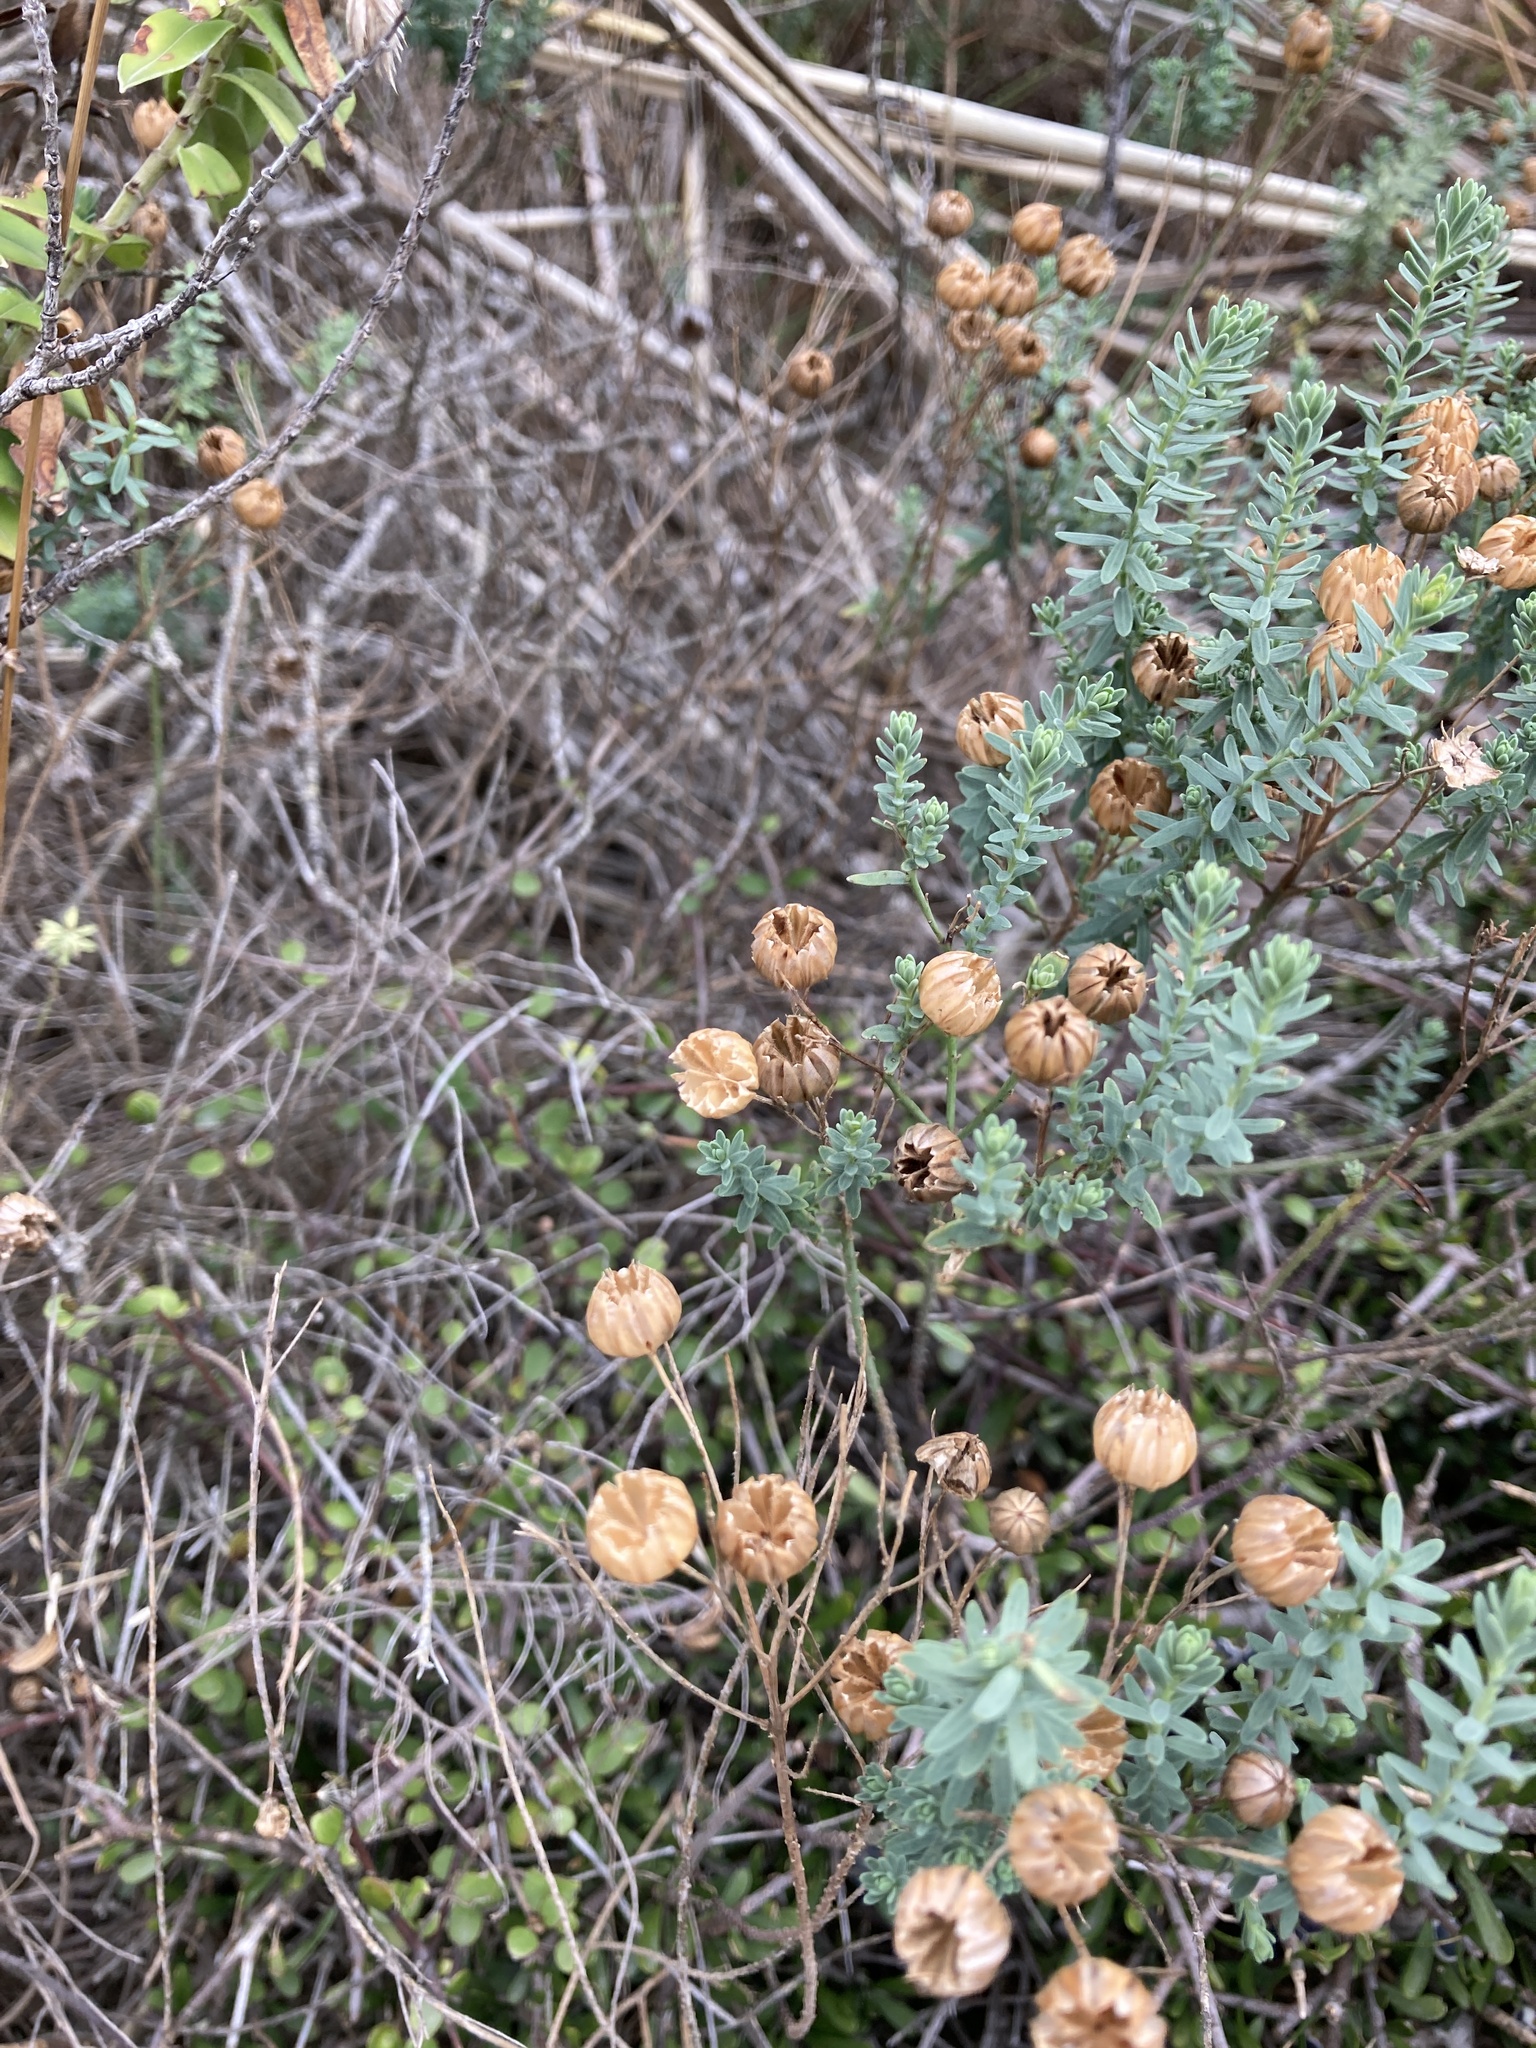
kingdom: Plantae
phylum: Tracheophyta
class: Magnoliopsida
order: Malpighiales
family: Linaceae
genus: Linum
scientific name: Linum monogynum
